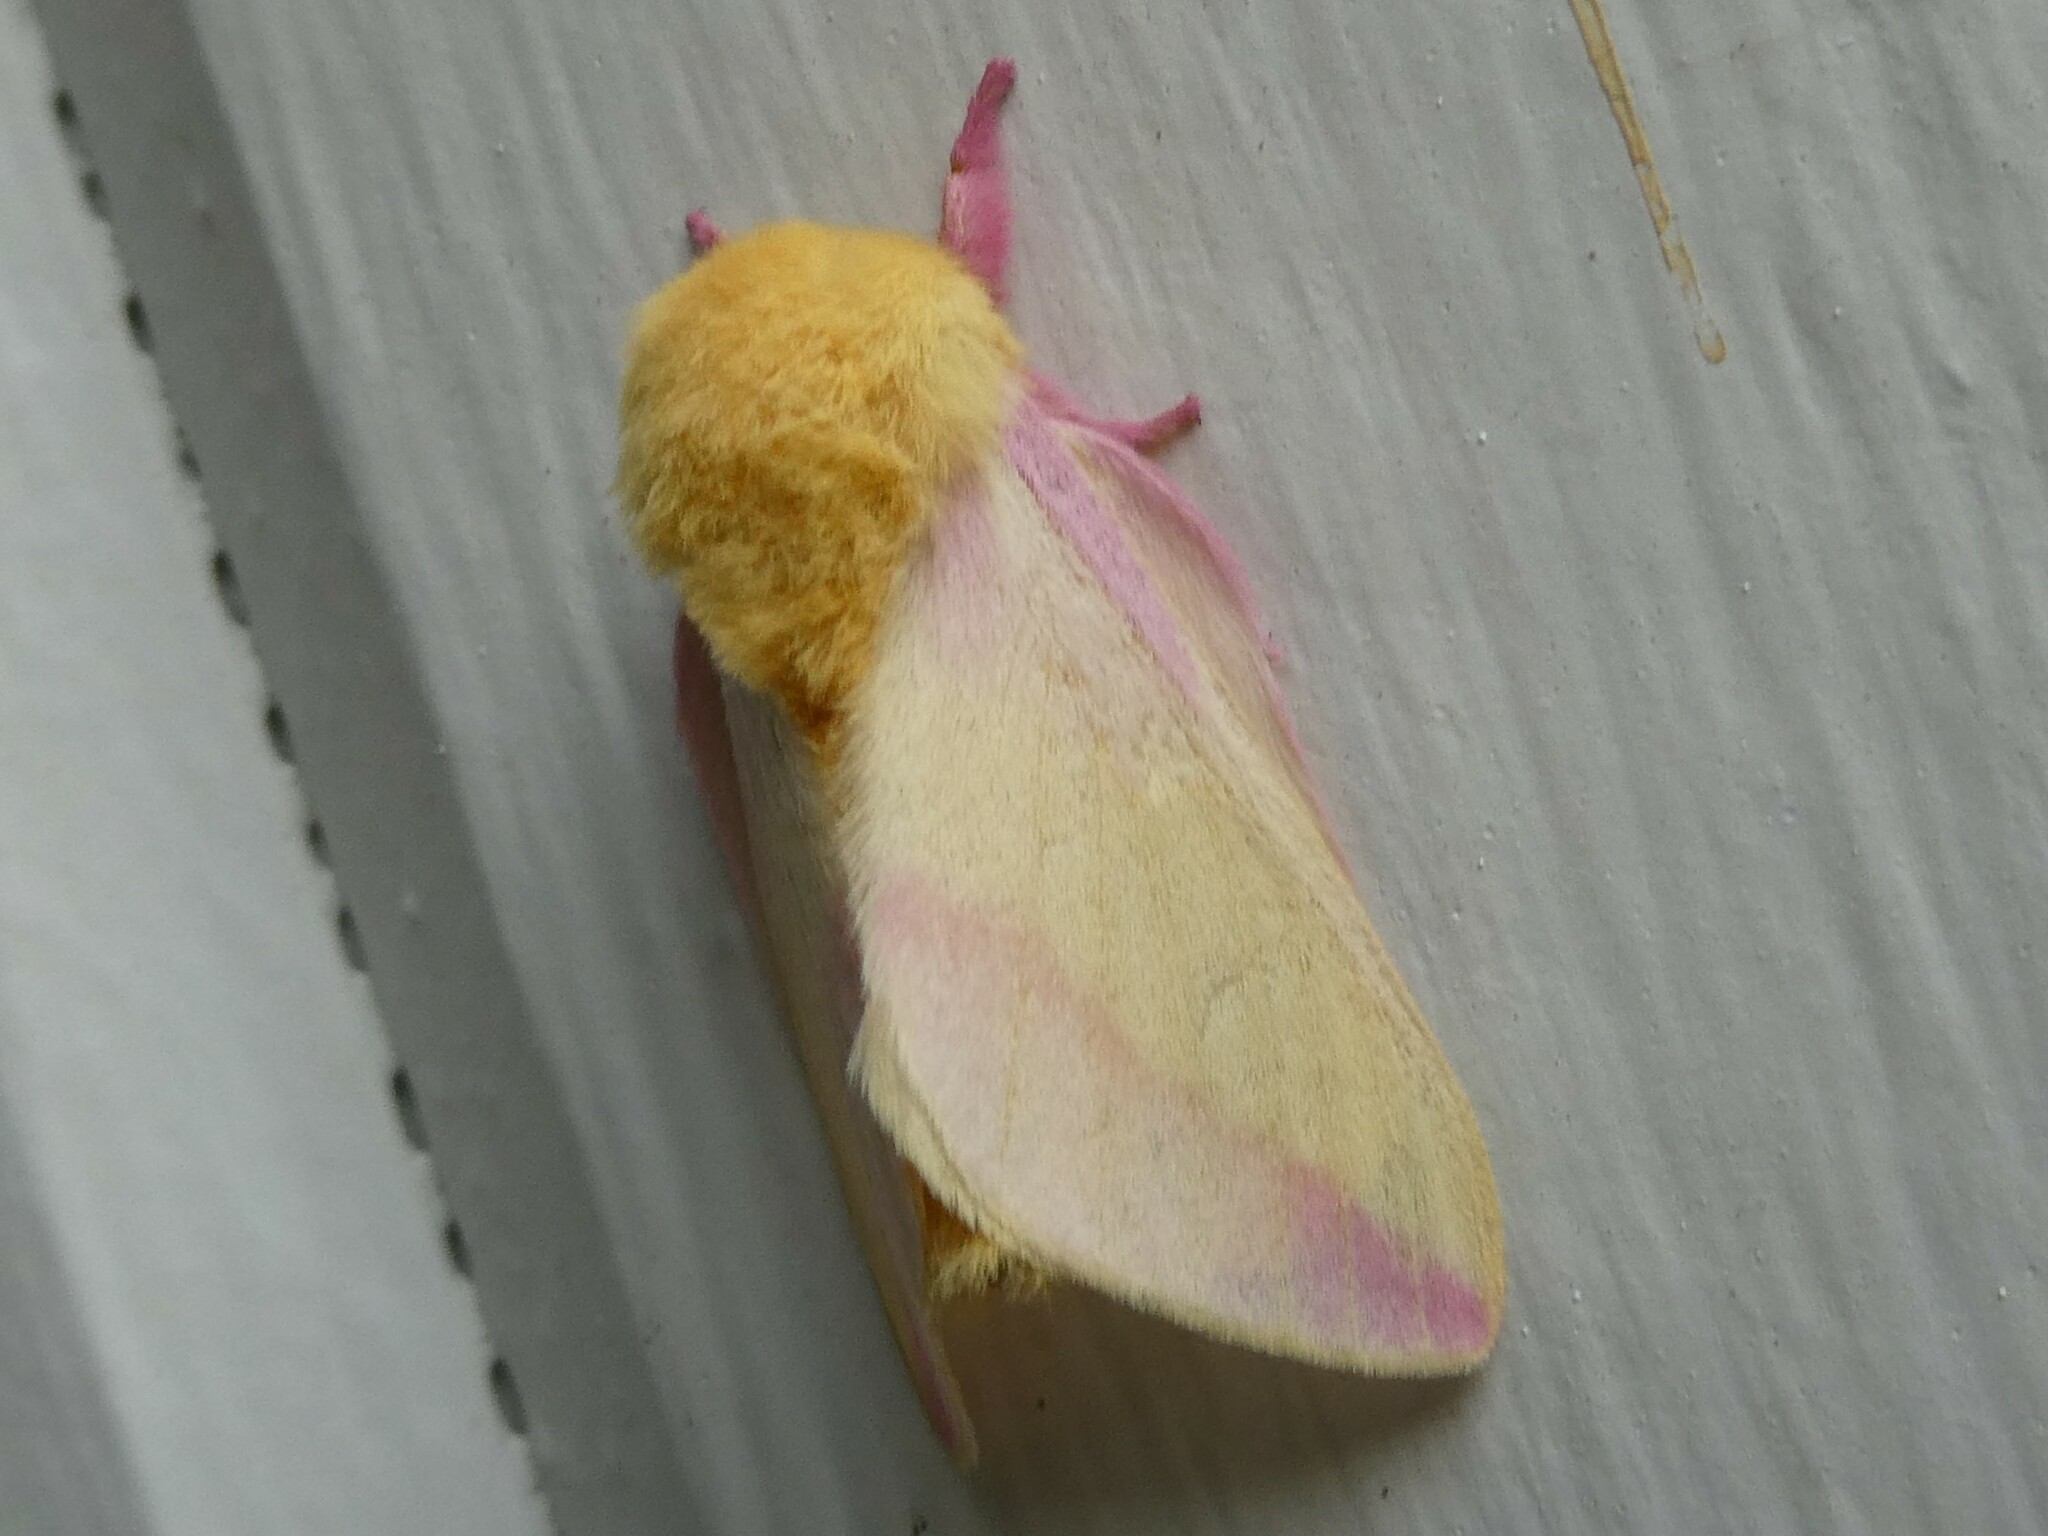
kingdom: Animalia
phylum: Arthropoda
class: Insecta
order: Lepidoptera
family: Saturniidae
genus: Dryocampa
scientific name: Dryocampa rubicunda
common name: Rosy maple moth
